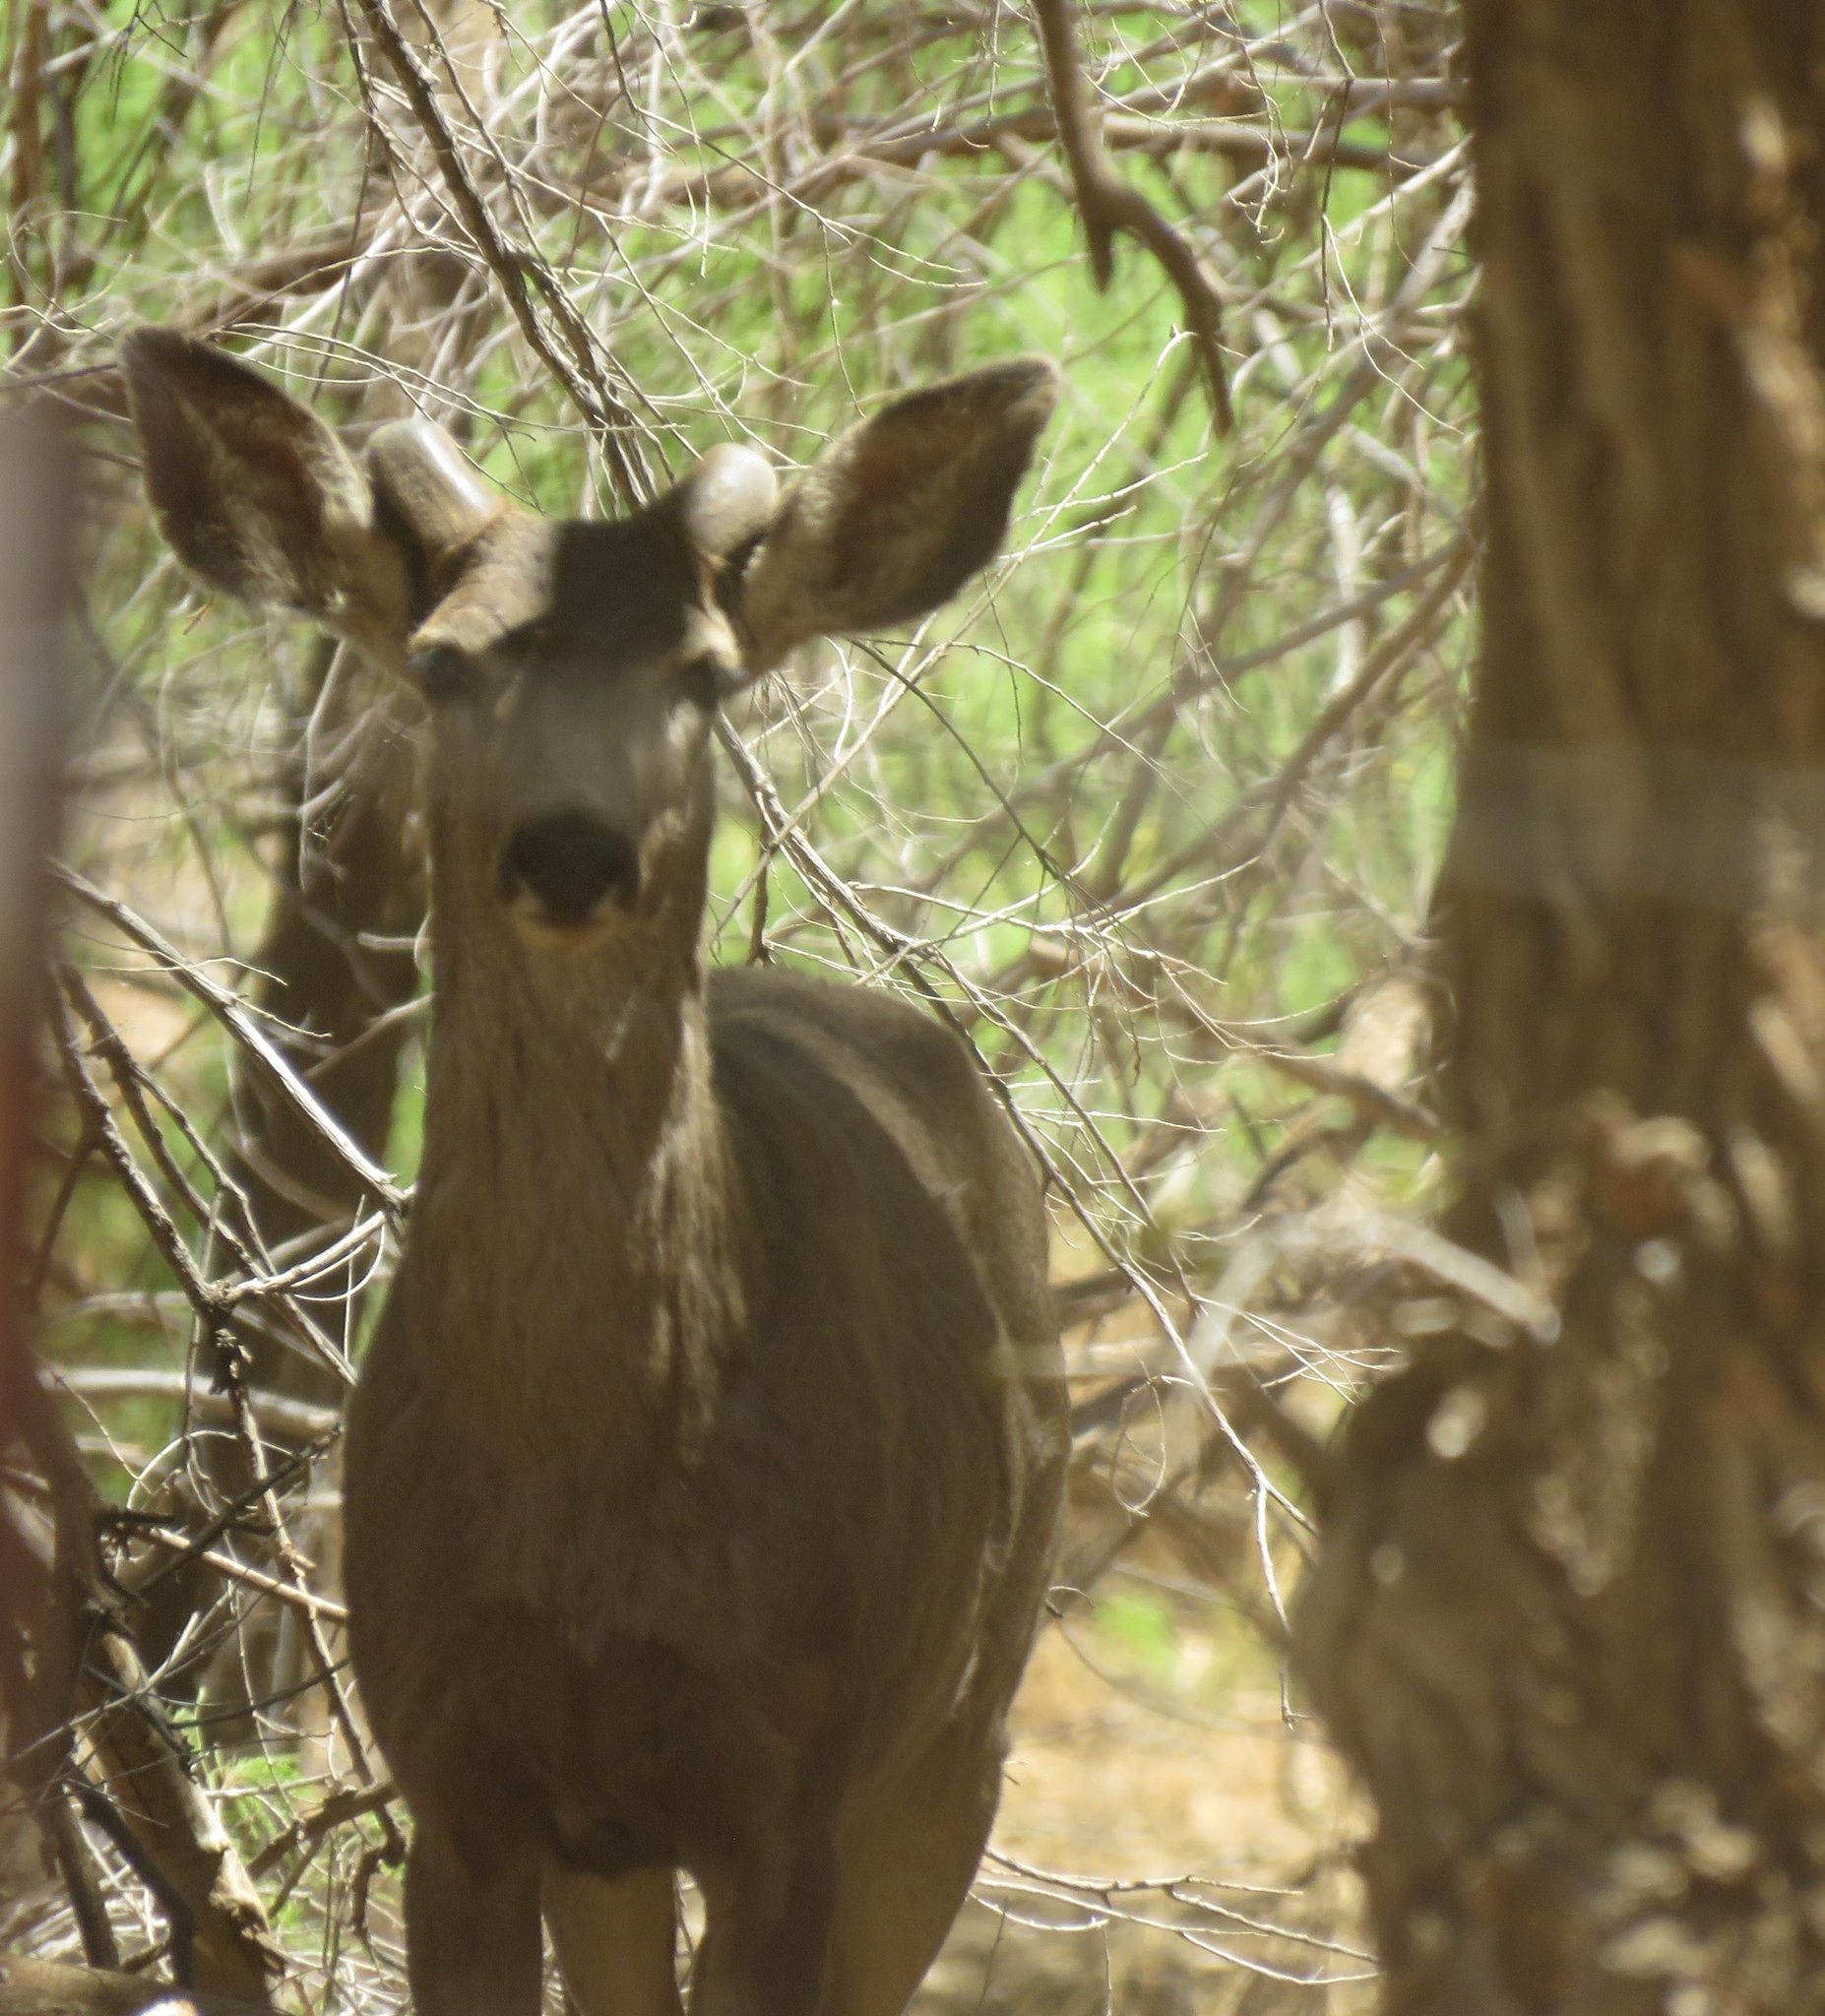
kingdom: Animalia
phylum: Chordata
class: Mammalia
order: Artiodactyla
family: Cervidae
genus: Odocoileus
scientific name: Odocoileus hemionus
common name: Mule deer
